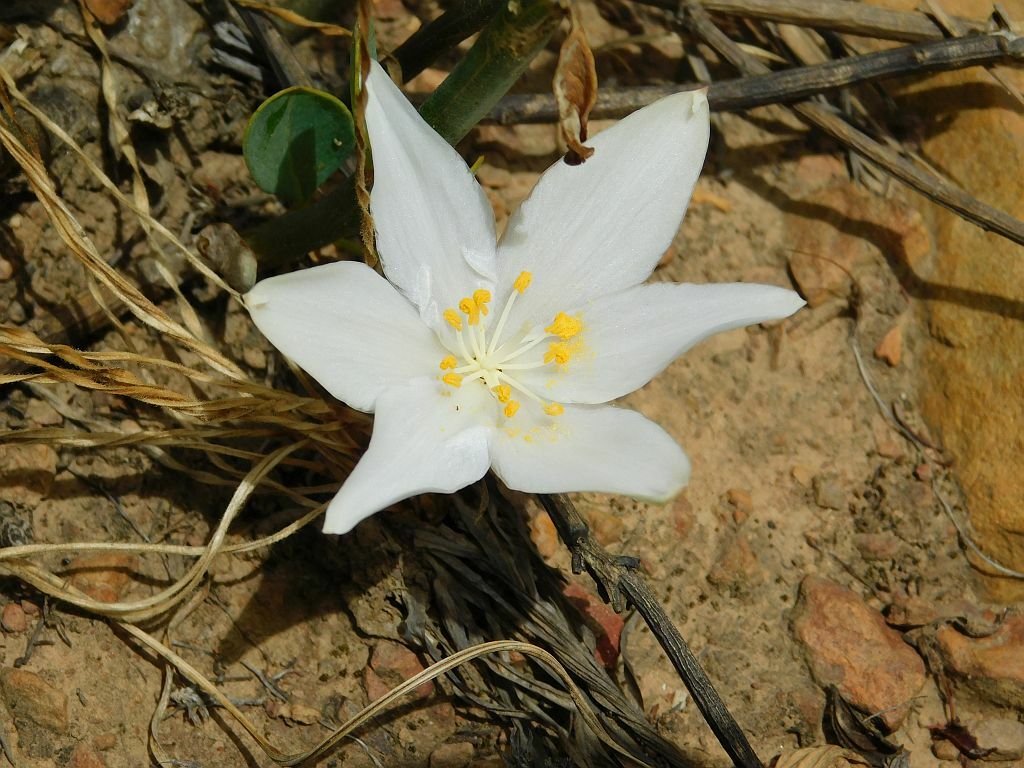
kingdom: Plantae
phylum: Tracheophyta
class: Liliopsida
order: Asparagales
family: Amaryllidaceae
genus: Gethyllis
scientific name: Gethyllis afra
